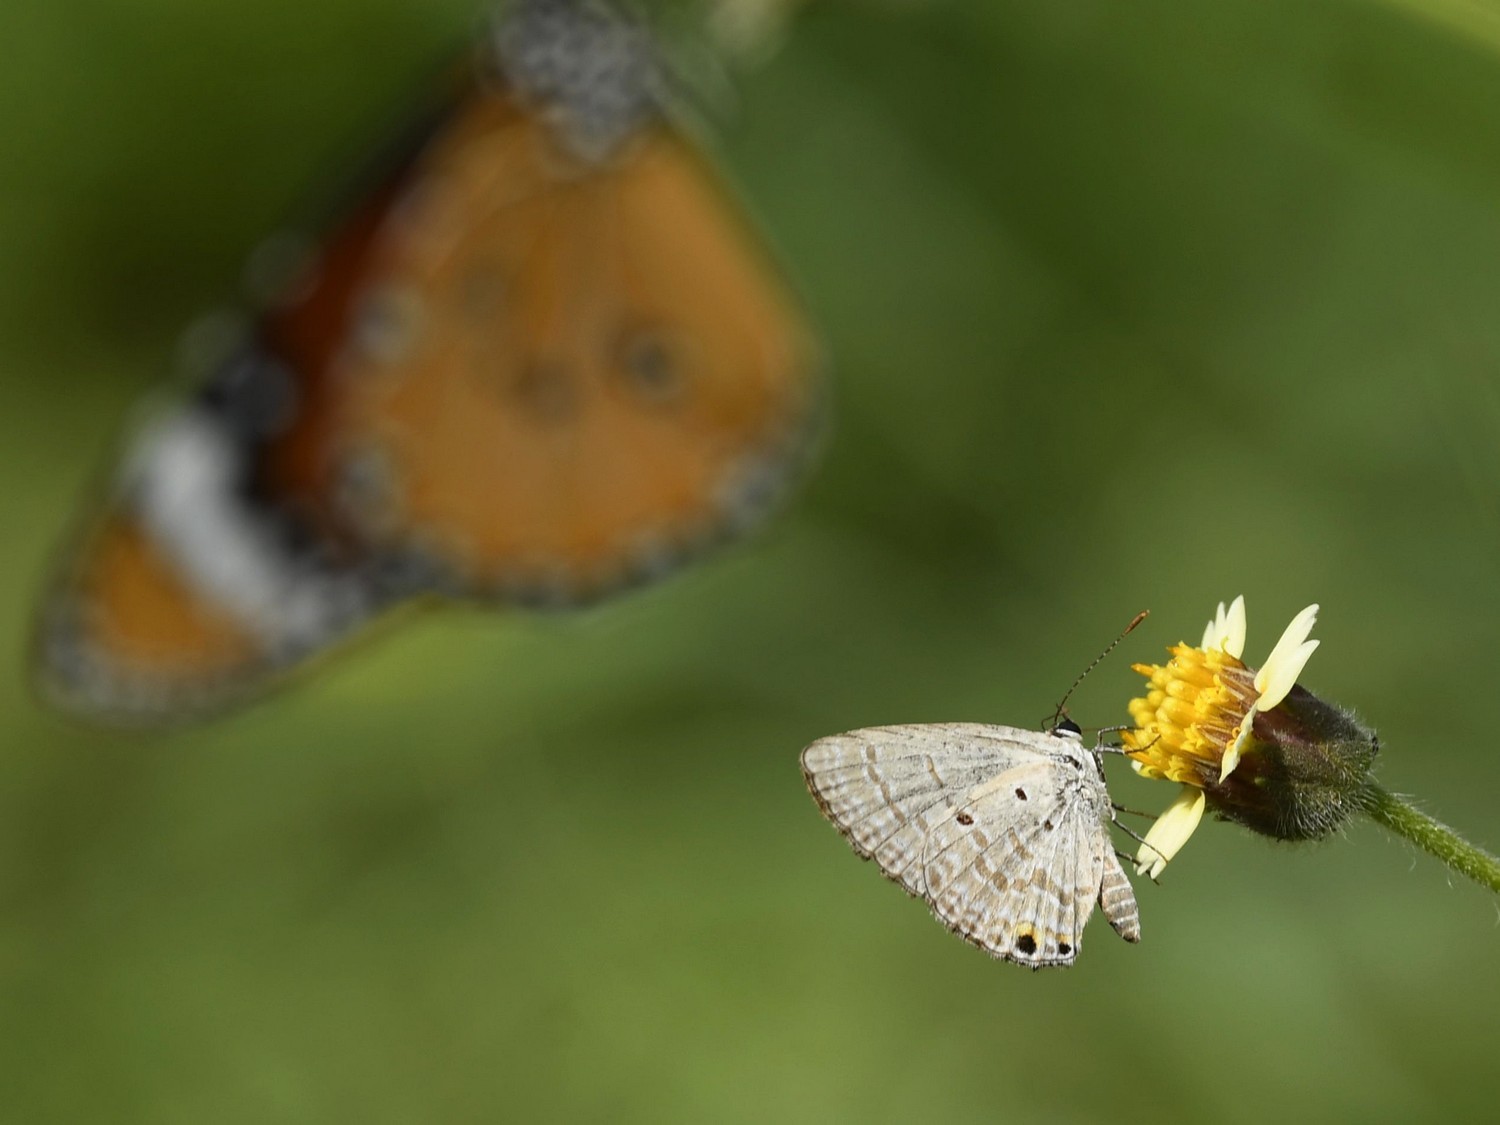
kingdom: Animalia
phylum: Arthropoda
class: Insecta
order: Lepidoptera
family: Lycaenidae
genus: Euchrysops
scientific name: Euchrysops cnejus
